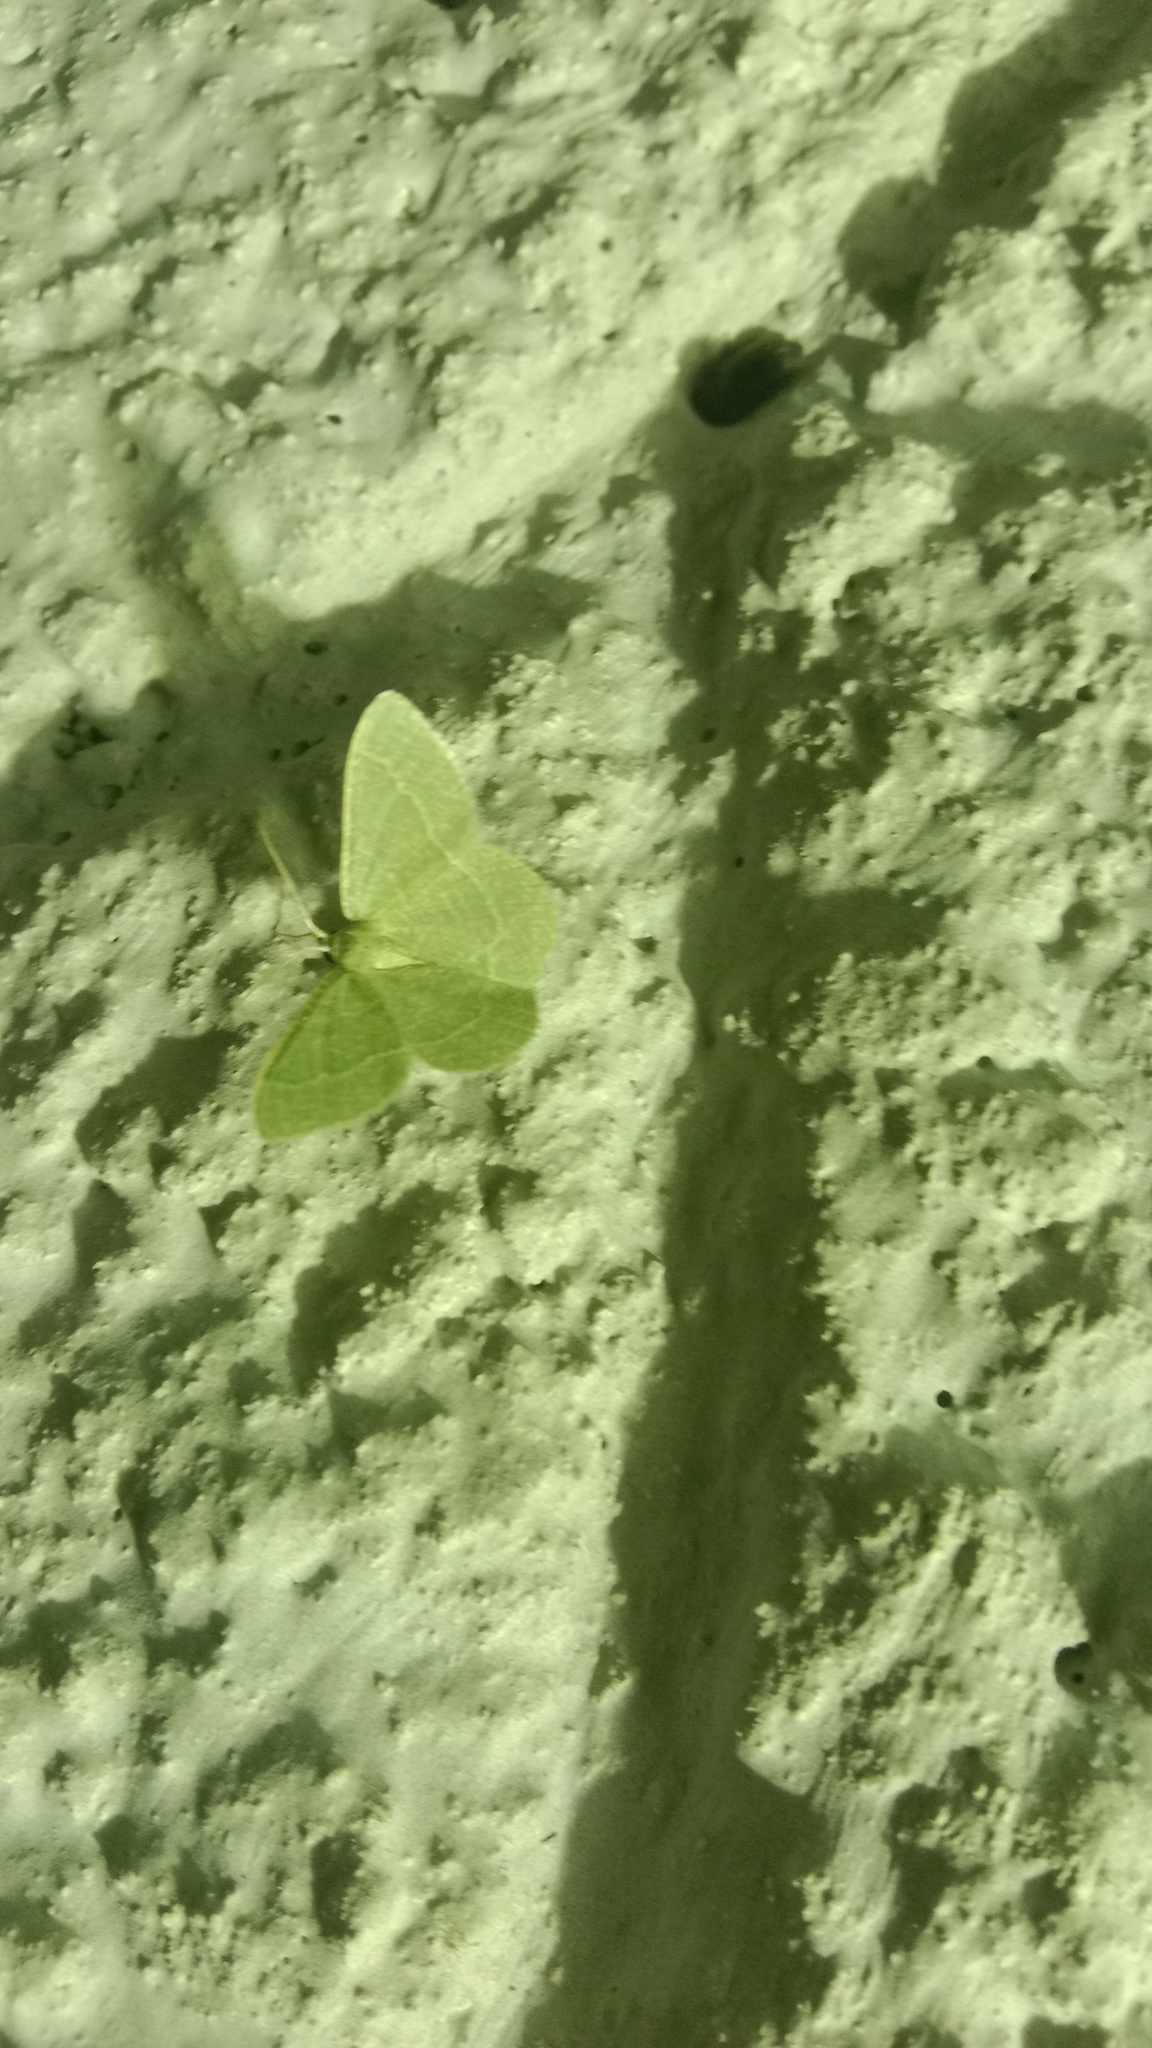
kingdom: Animalia
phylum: Arthropoda
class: Insecta
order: Lepidoptera
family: Geometridae
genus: Chlorissa
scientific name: Chlorissa etruscaria
